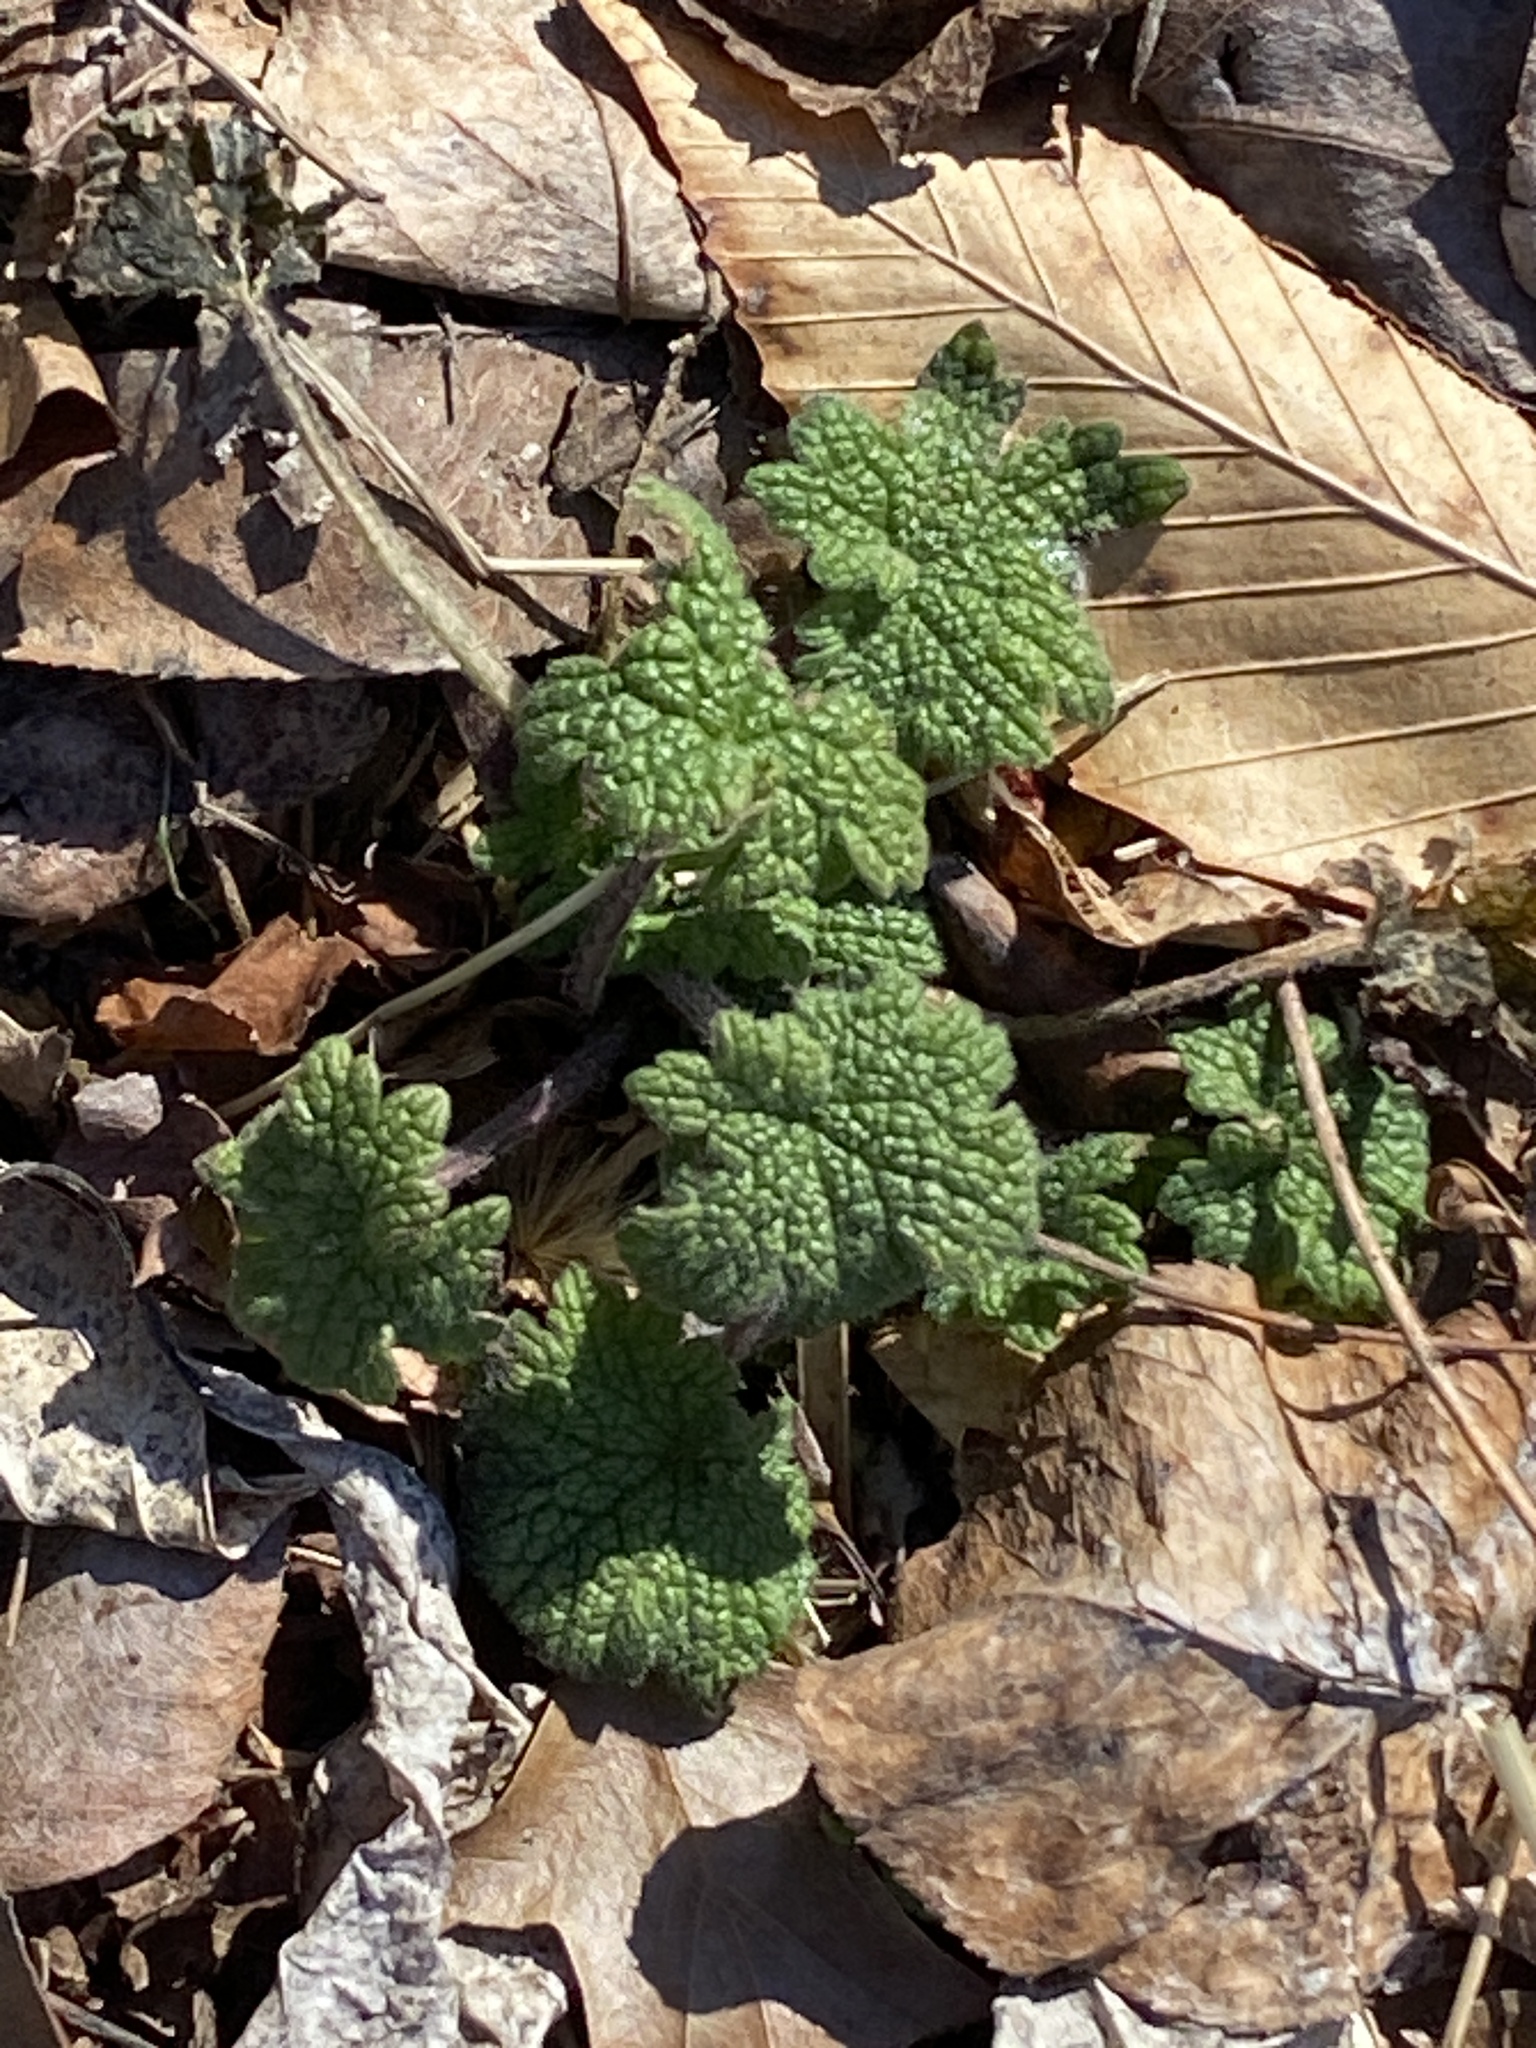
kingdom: Plantae
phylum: Tracheophyta
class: Magnoliopsida
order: Lamiales
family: Lamiaceae
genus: Leonurus
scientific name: Leonurus cardiaca
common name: Motherwort
